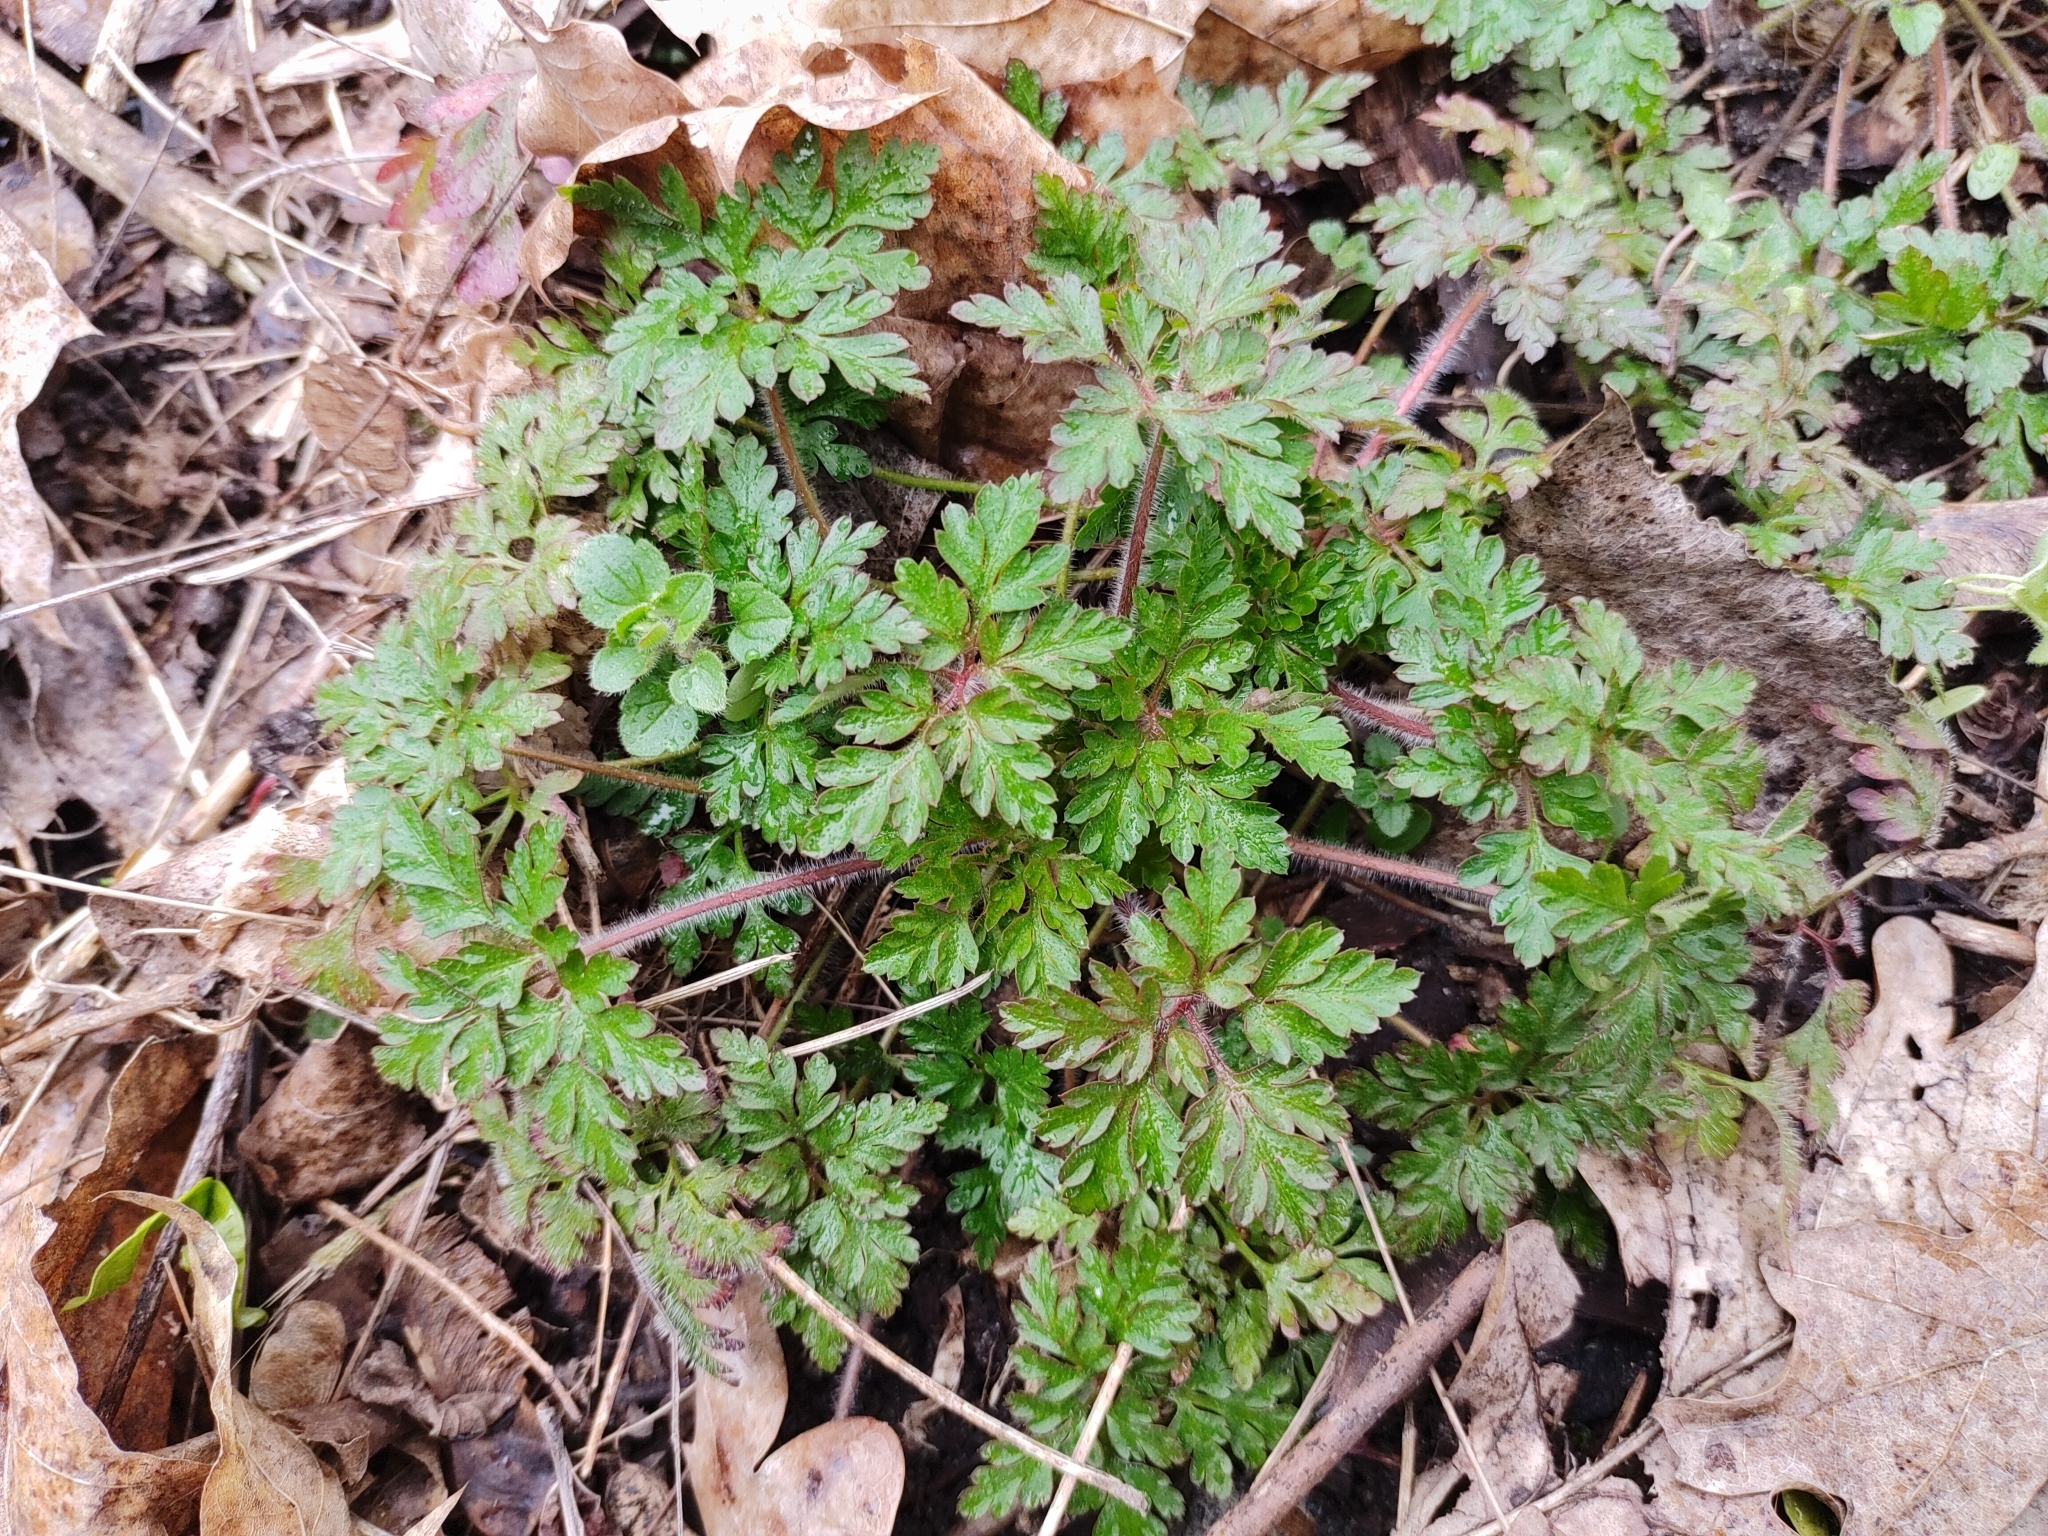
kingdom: Plantae
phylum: Tracheophyta
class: Magnoliopsida
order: Geraniales
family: Geraniaceae
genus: Geranium
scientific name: Geranium robertianum
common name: Herb-robert
